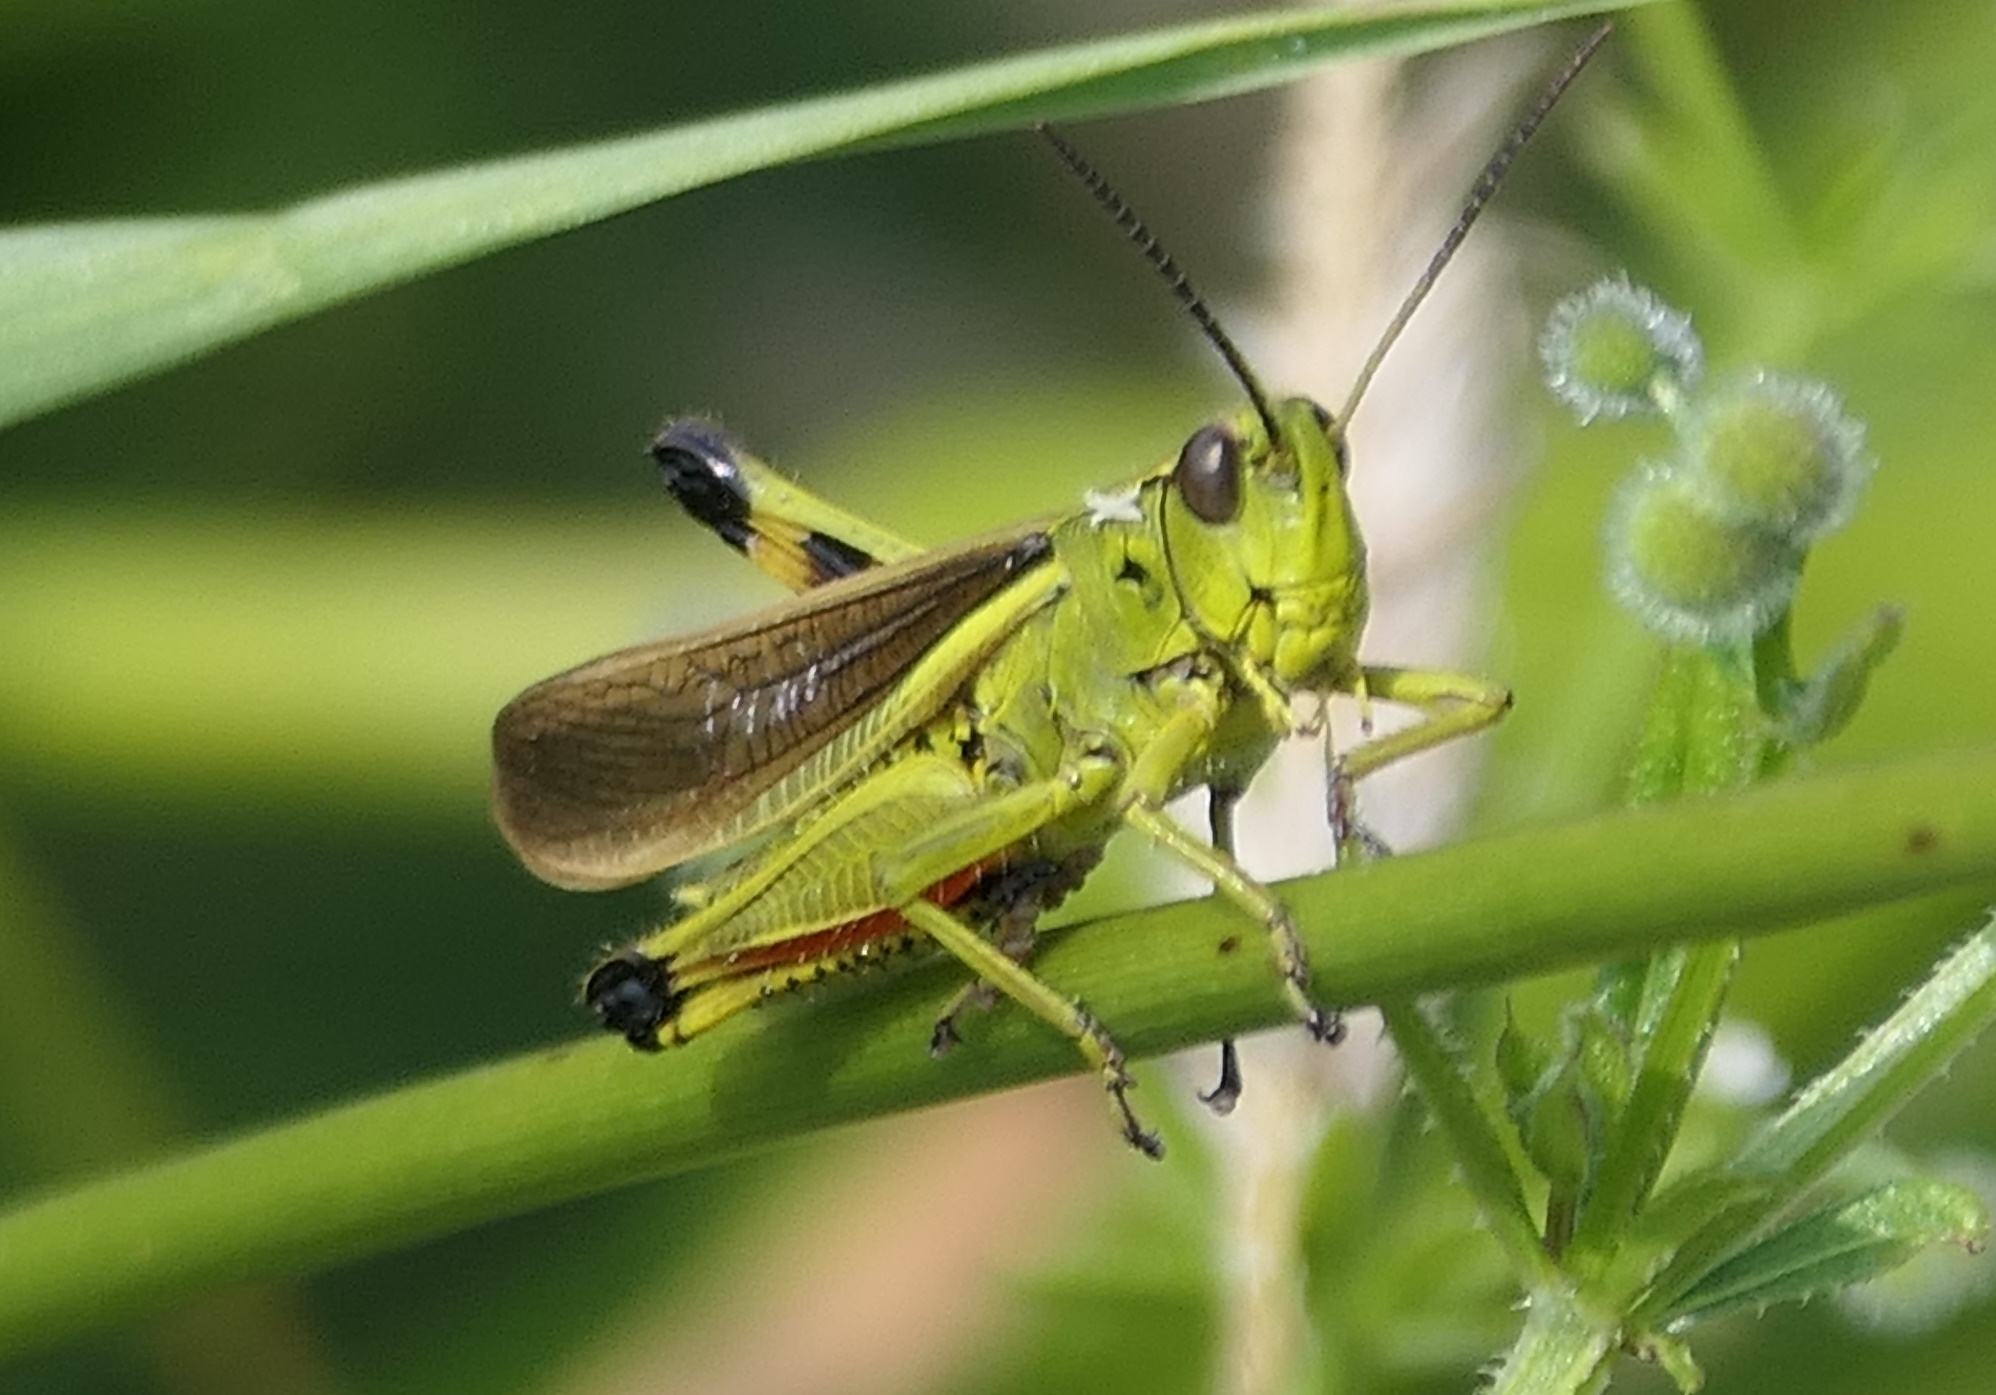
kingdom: Animalia
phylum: Arthropoda
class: Insecta
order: Orthoptera
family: Acrididae
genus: Stethophyma
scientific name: Stethophyma grossum
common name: Large marsh grasshopper
